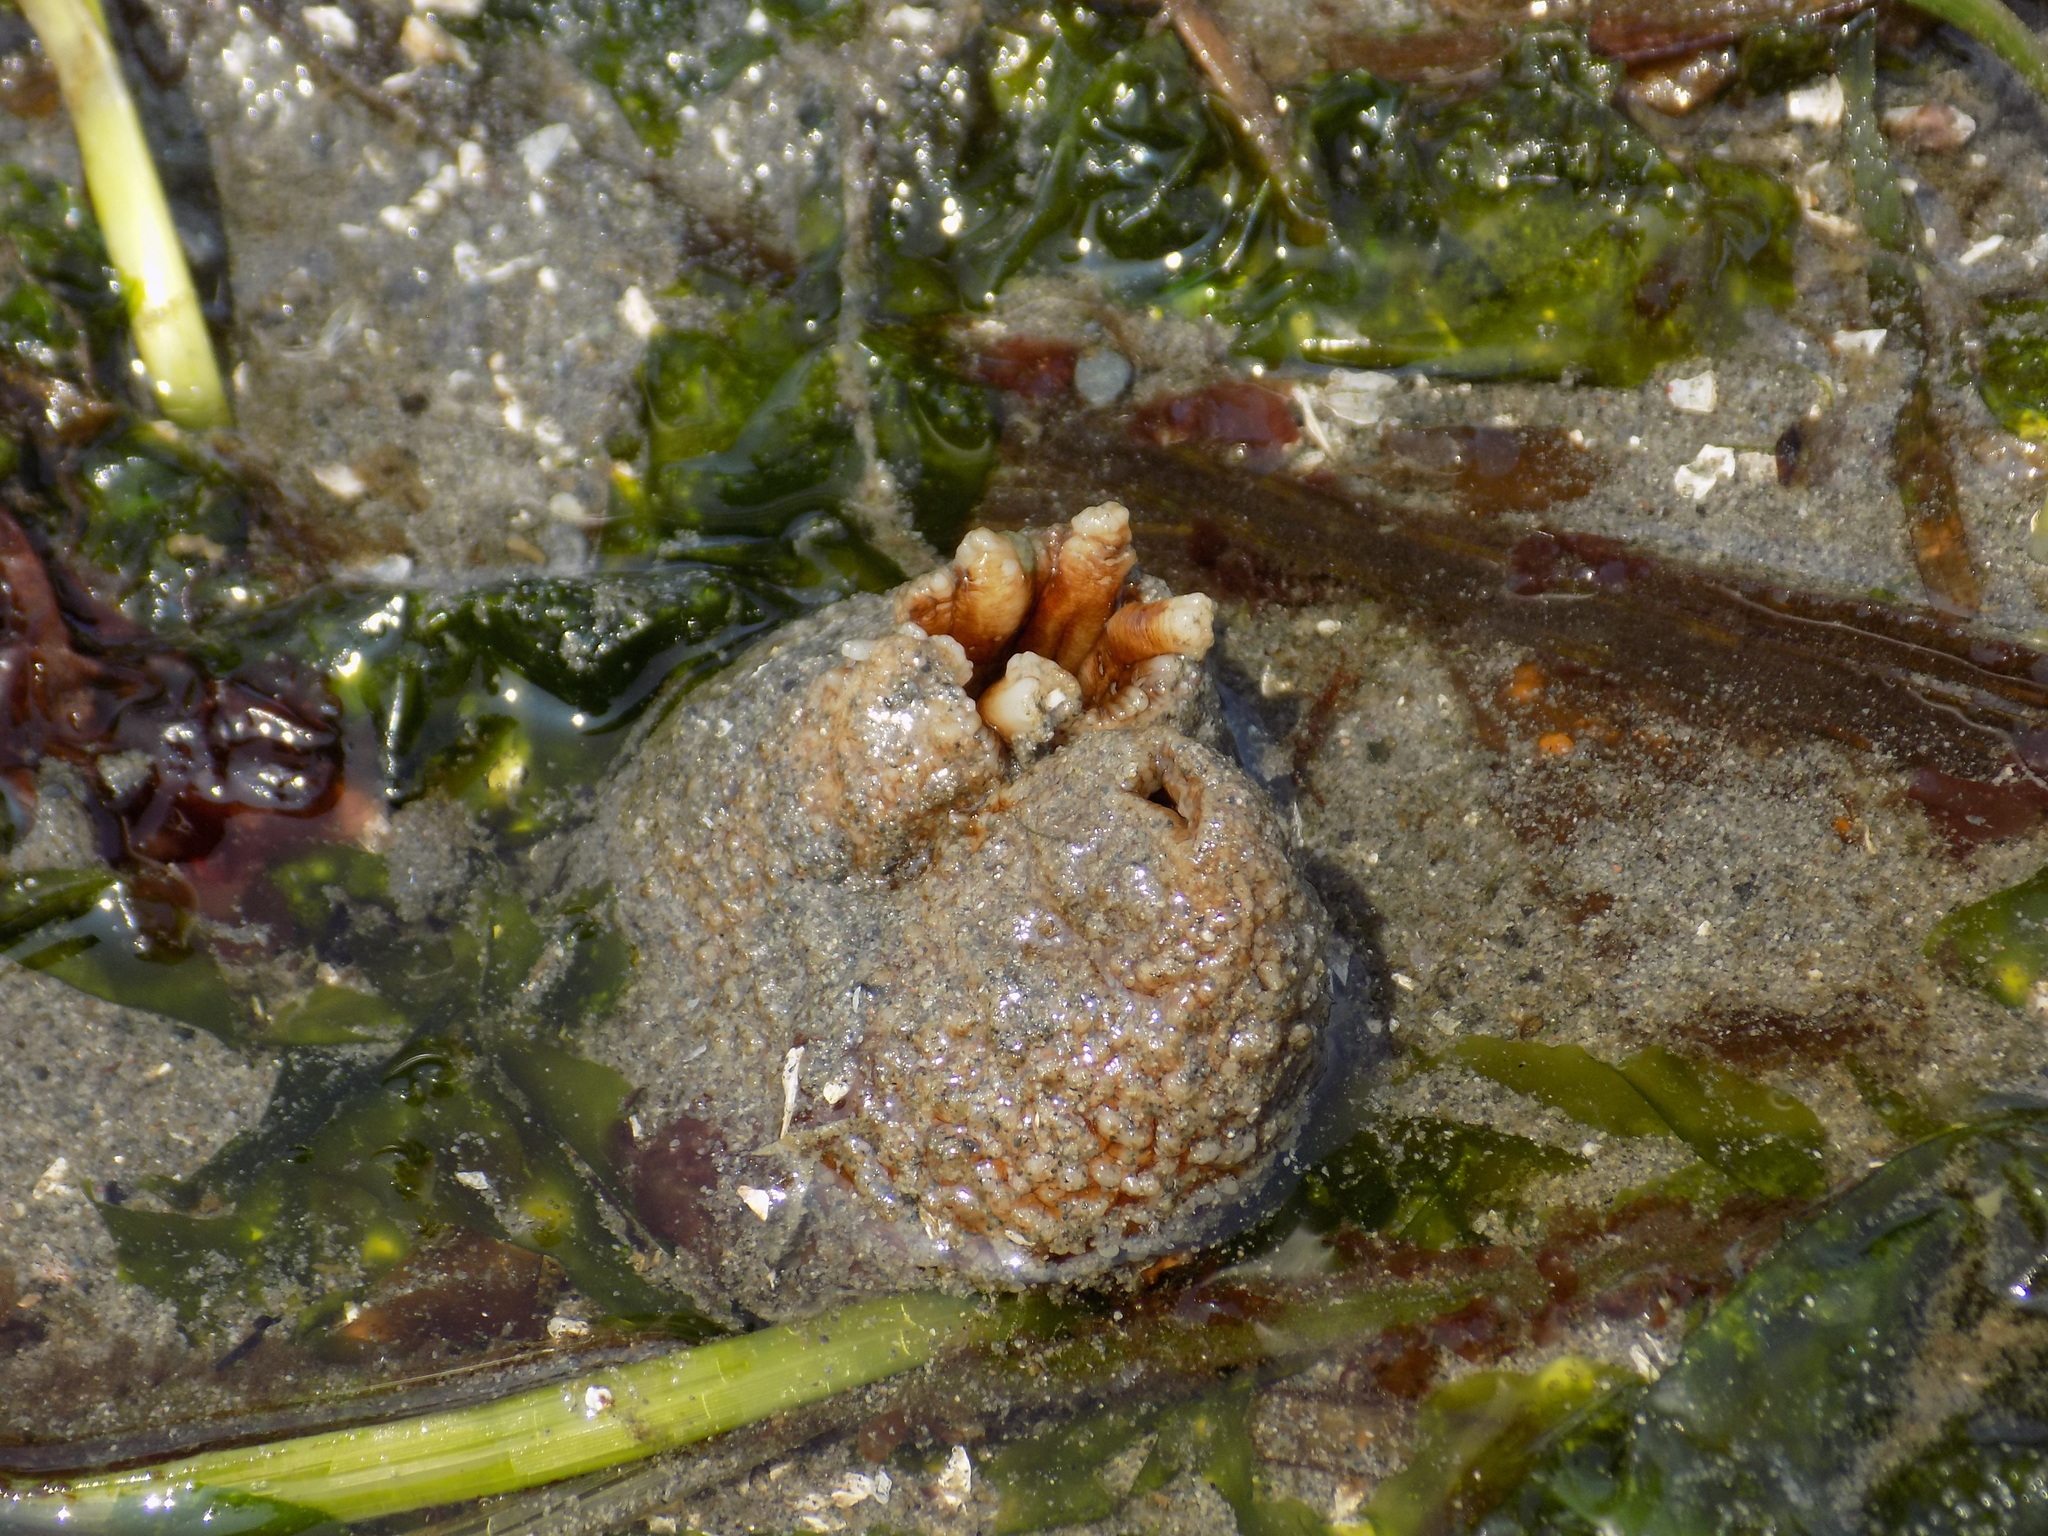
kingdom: Animalia
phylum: Mollusca
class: Bivalvia
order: Myida
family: Pholadidae
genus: Zirfaea
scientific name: Zirfaea pilsbryi
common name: Rough piddock
